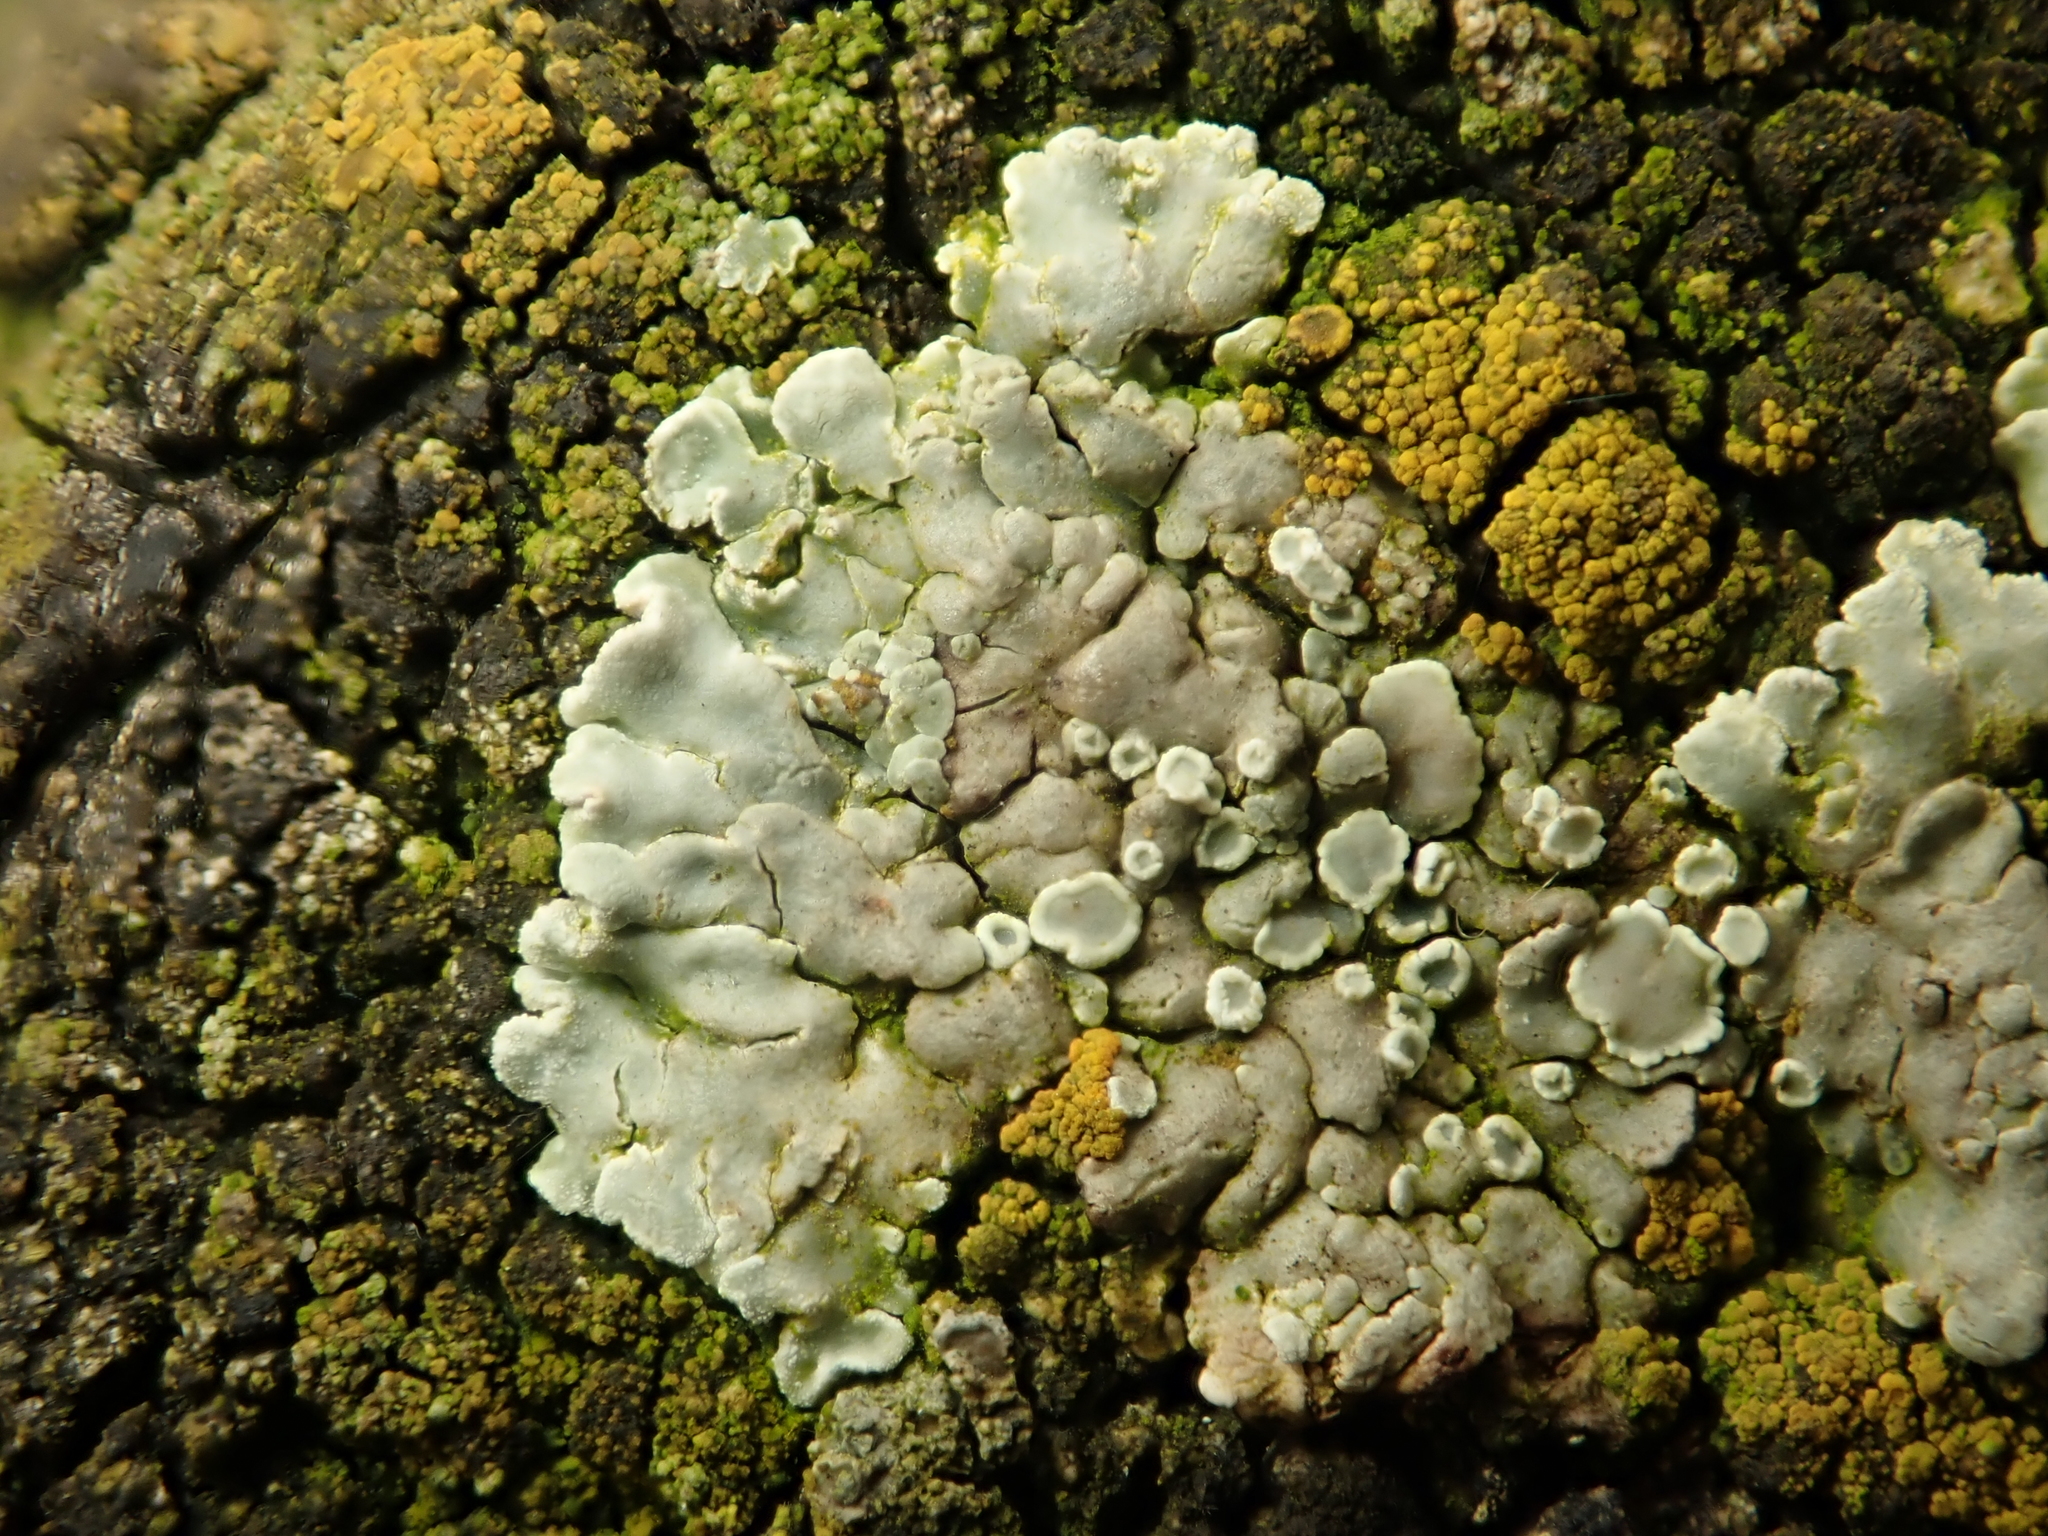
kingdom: Fungi
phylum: Ascomycota
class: Lecanoromycetes
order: Lecanorales
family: Lecanoraceae
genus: Protoparmeliopsis
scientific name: Protoparmeliopsis muralis
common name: Stonewall rim lichen
